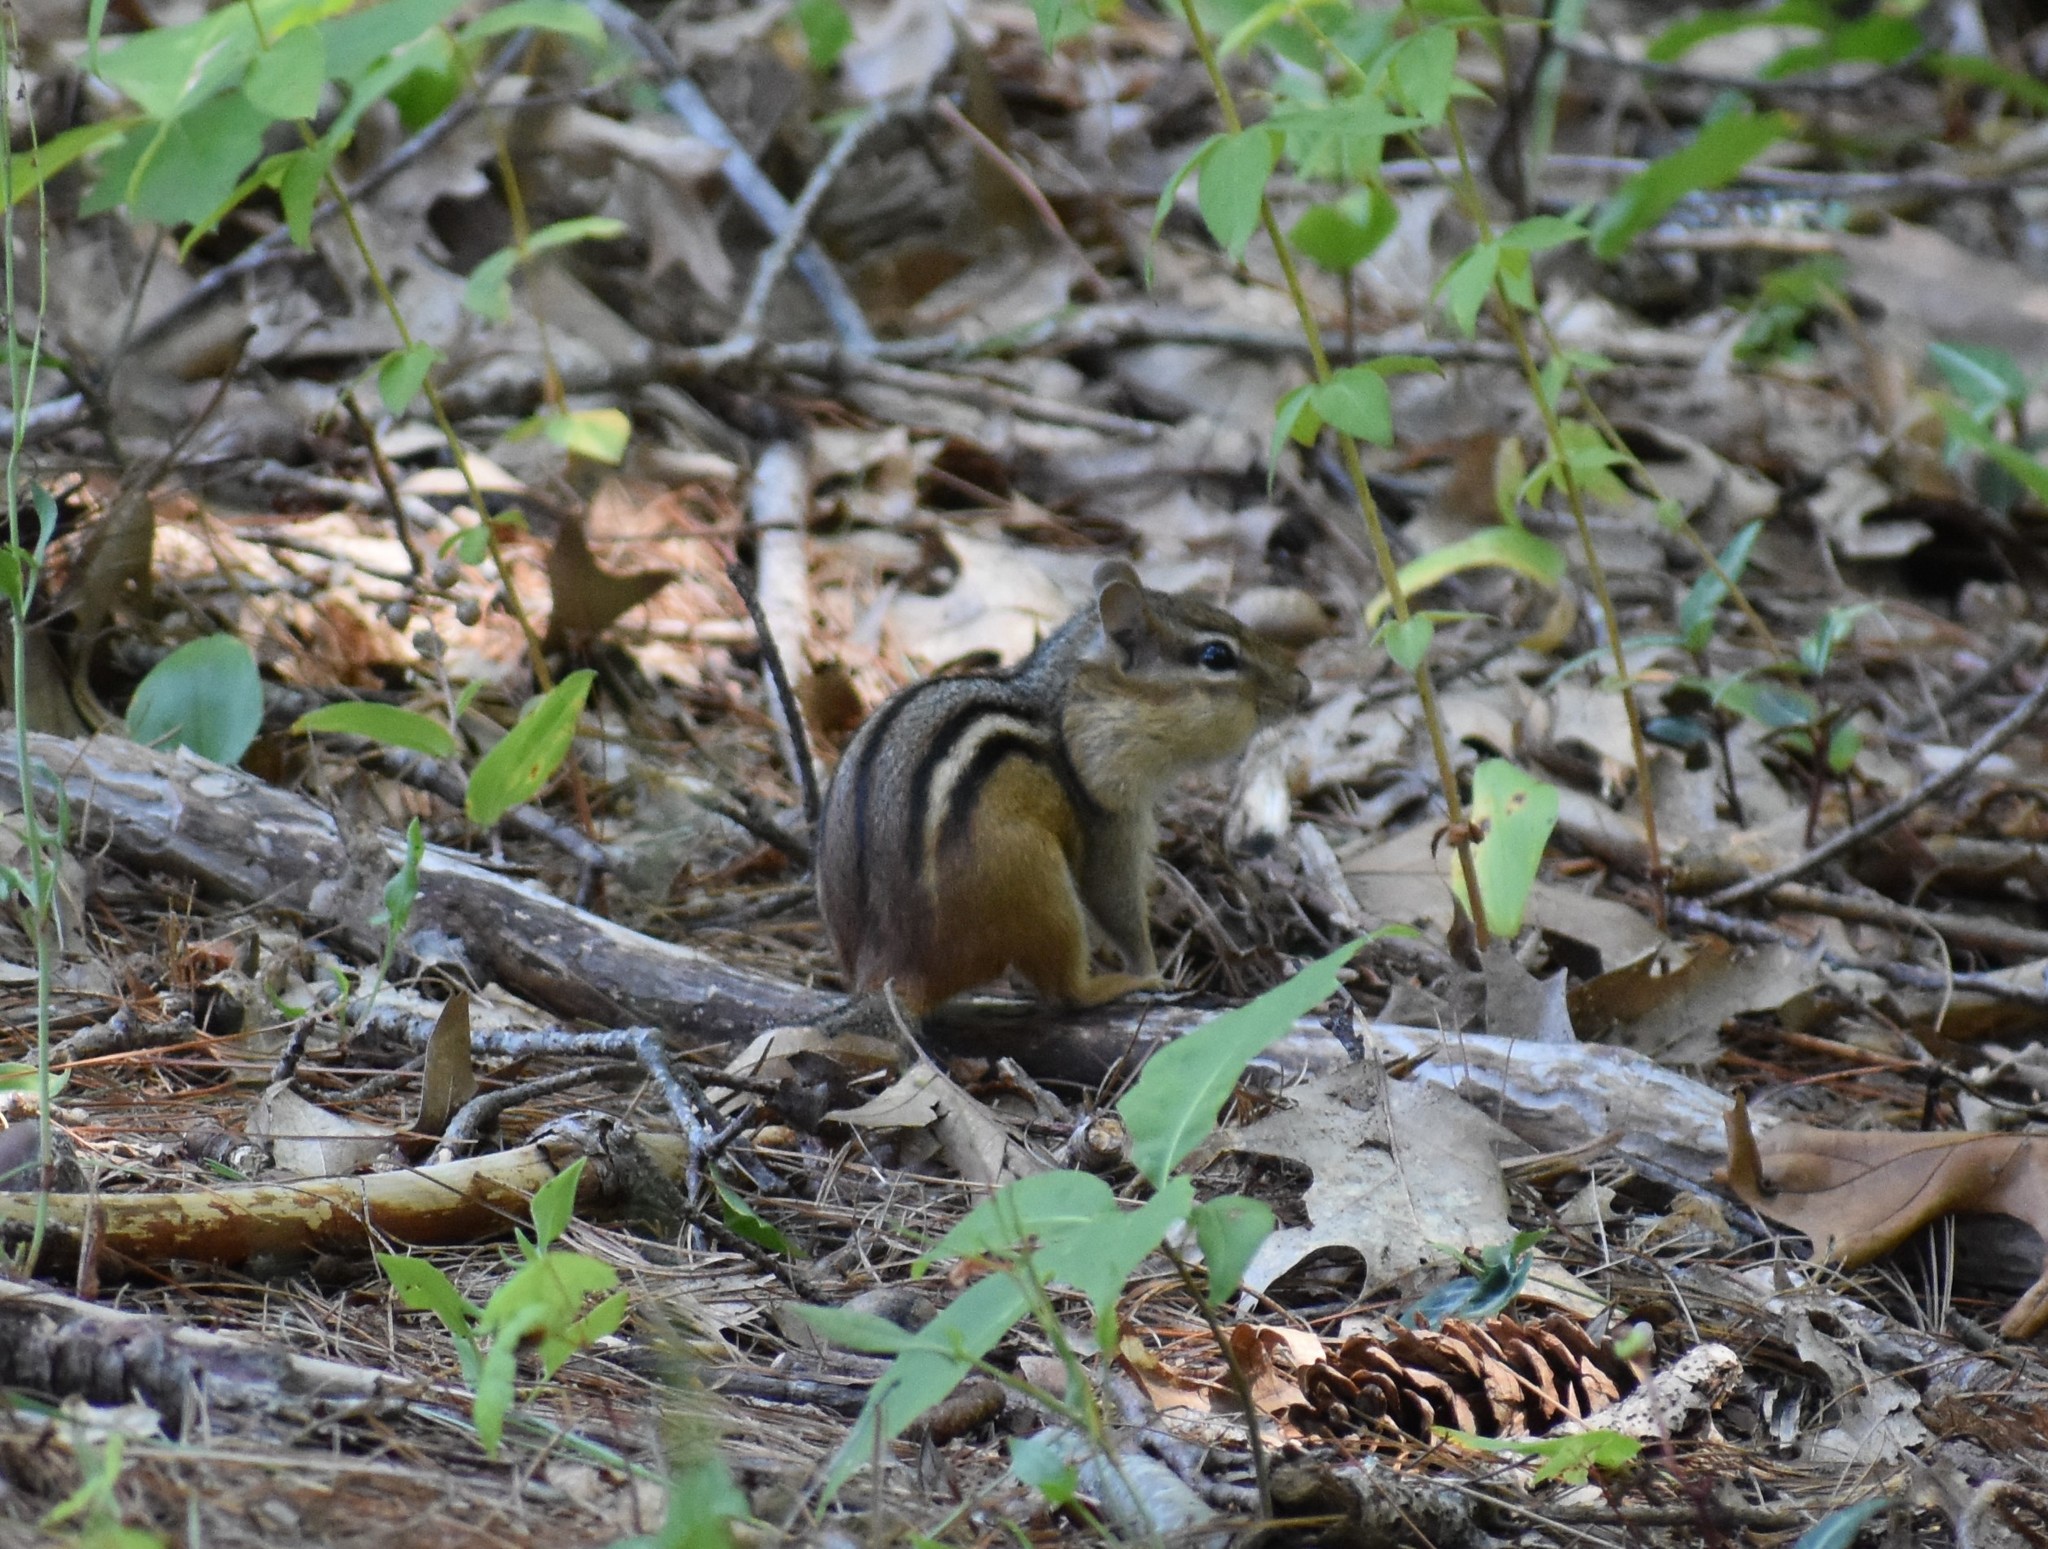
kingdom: Animalia
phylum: Chordata
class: Mammalia
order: Rodentia
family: Sciuridae
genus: Tamias
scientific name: Tamias striatus
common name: Eastern chipmunk
